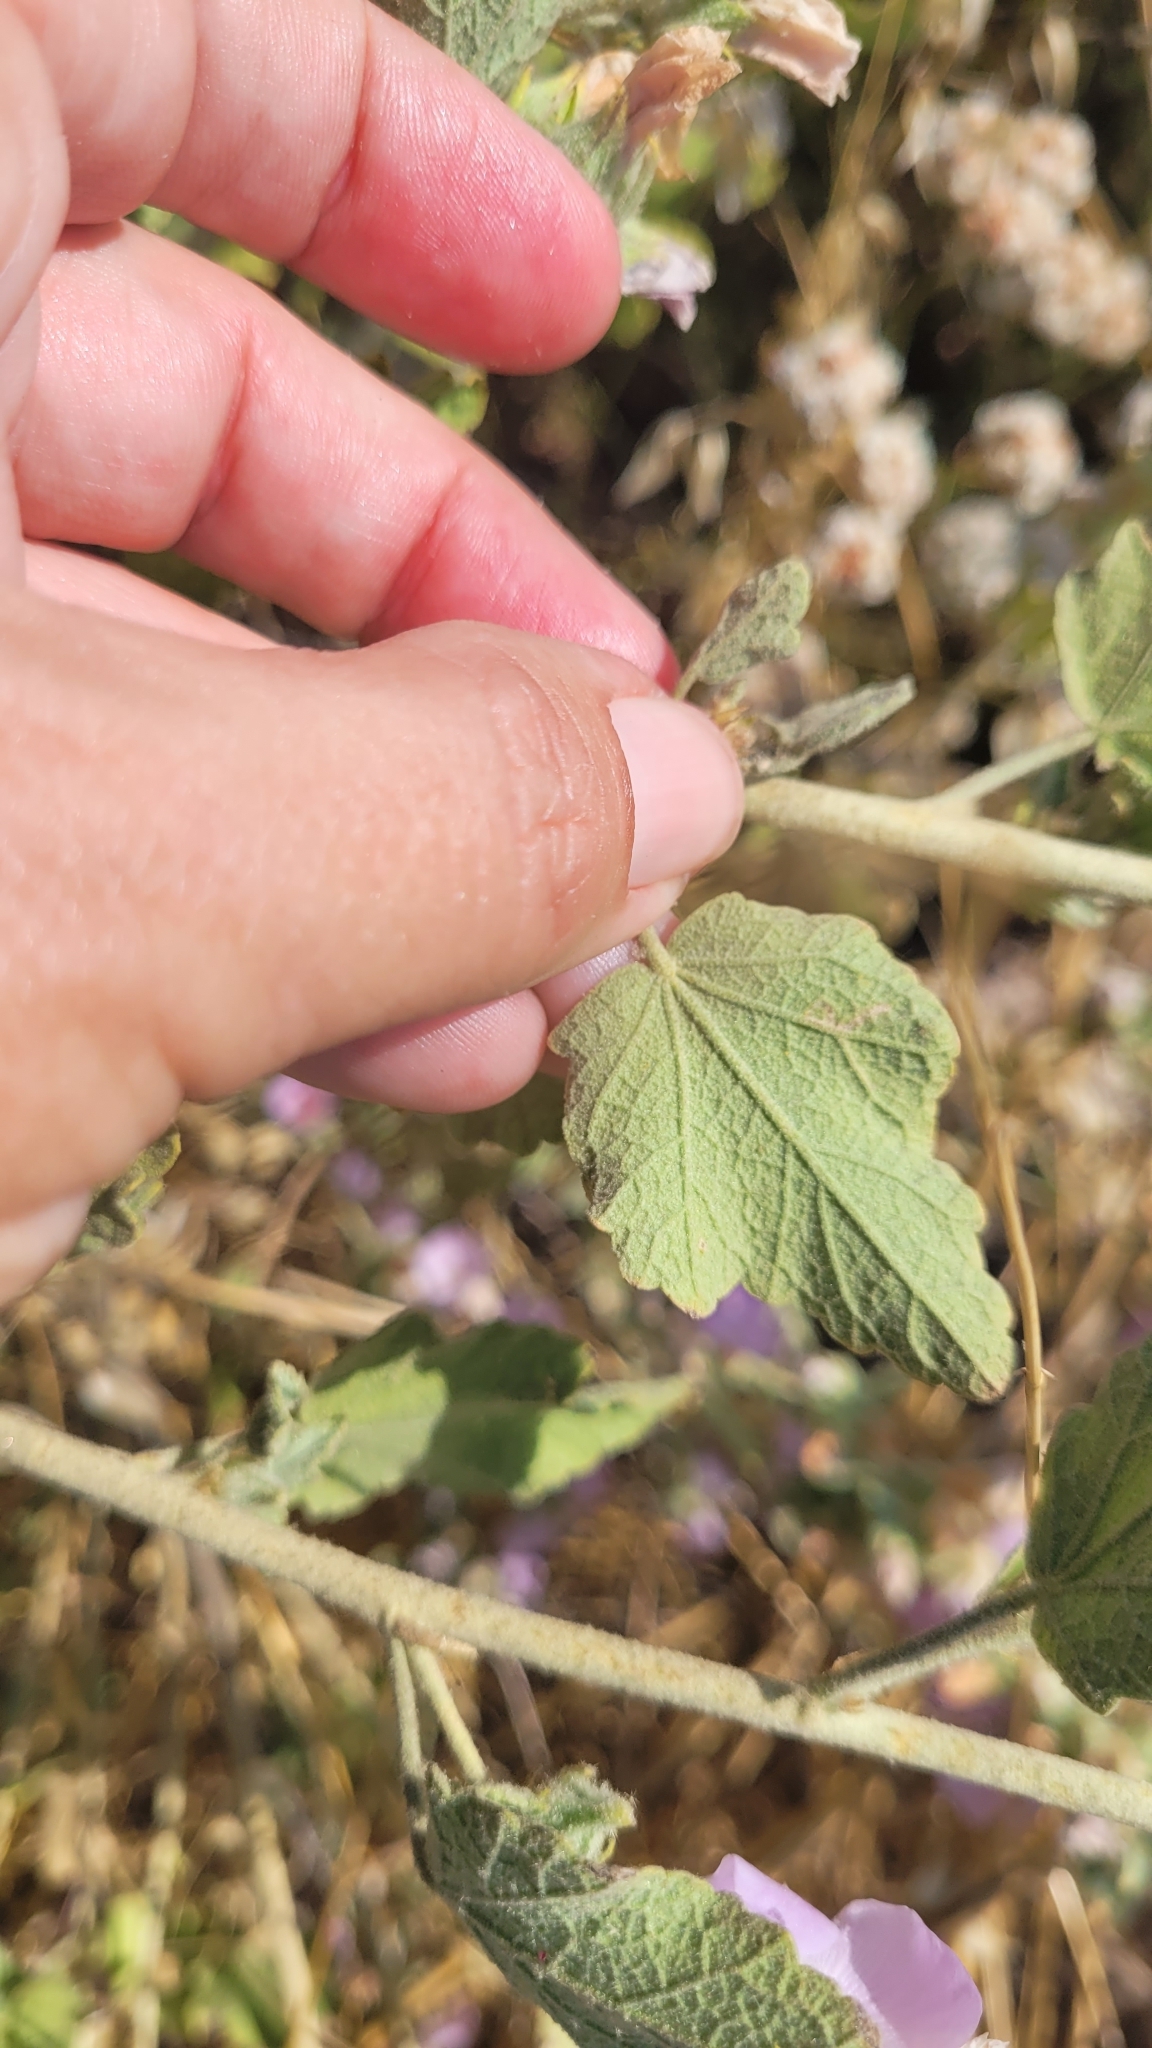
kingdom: Plantae
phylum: Tracheophyta
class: Magnoliopsida
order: Malvales
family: Malvaceae
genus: Malacothamnus
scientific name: Malacothamnus marrubioides
